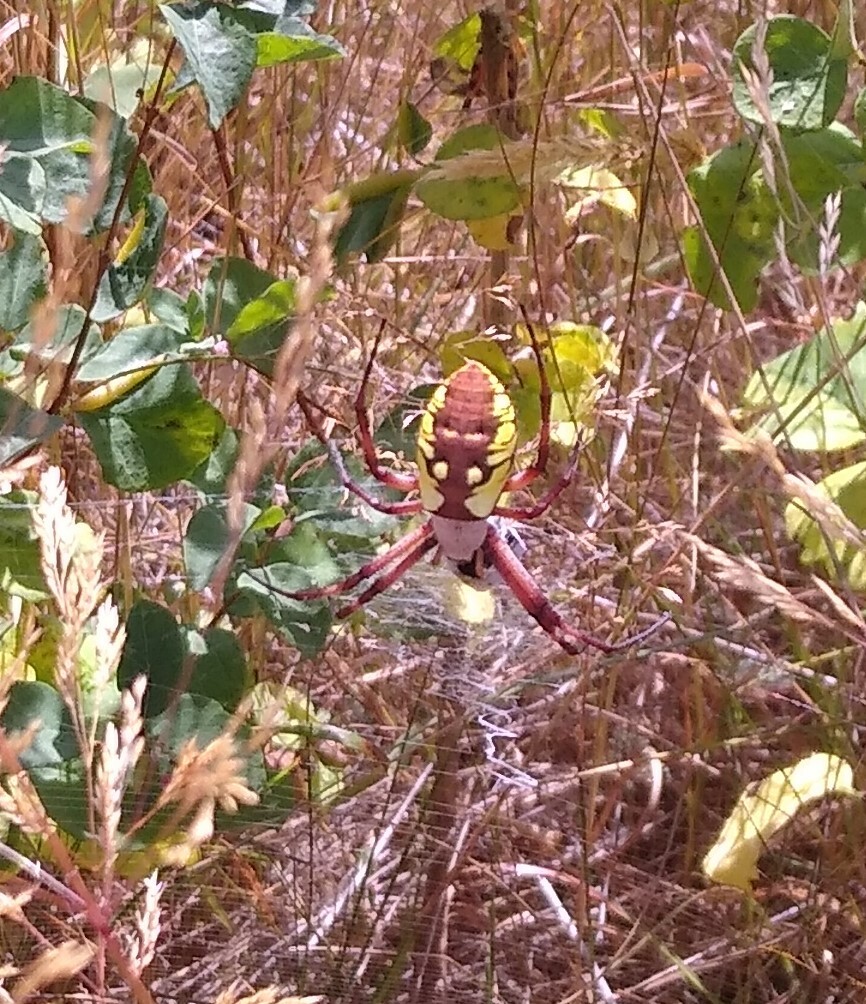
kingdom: Animalia
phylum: Arthropoda
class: Arachnida
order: Araneae
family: Araneidae
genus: Argiope
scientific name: Argiope aurantia
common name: Orb weavers
